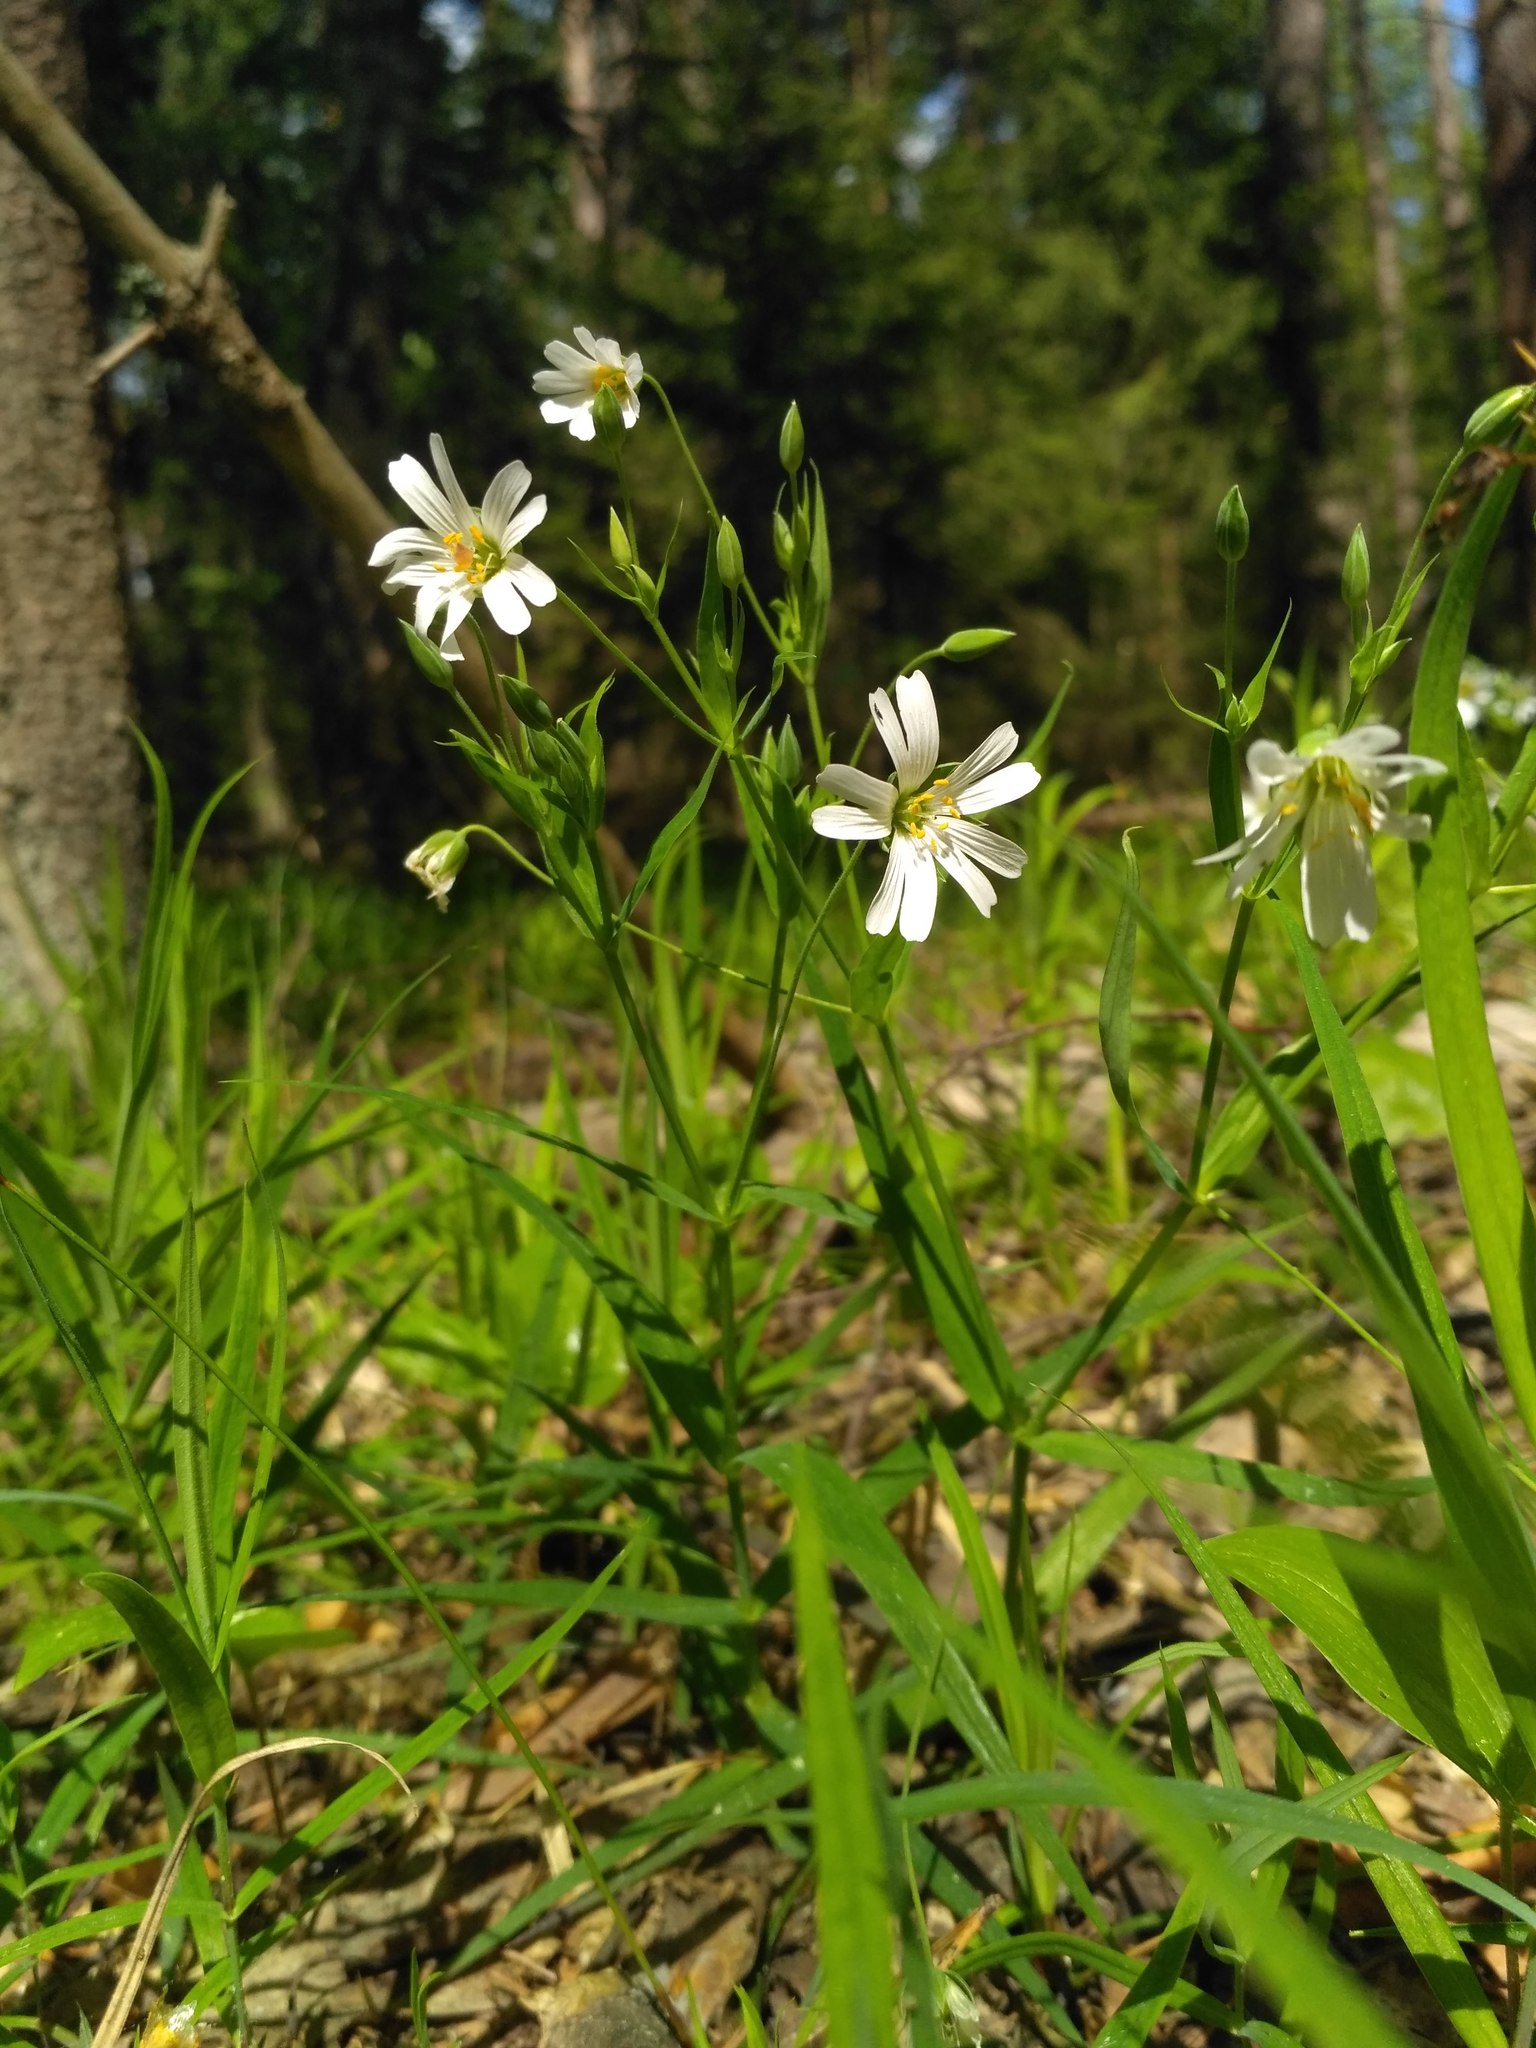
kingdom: Plantae
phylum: Tracheophyta
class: Magnoliopsida
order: Caryophyllales
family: Caryophyllaceae
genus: Rabelera
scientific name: Rabelera holostea
